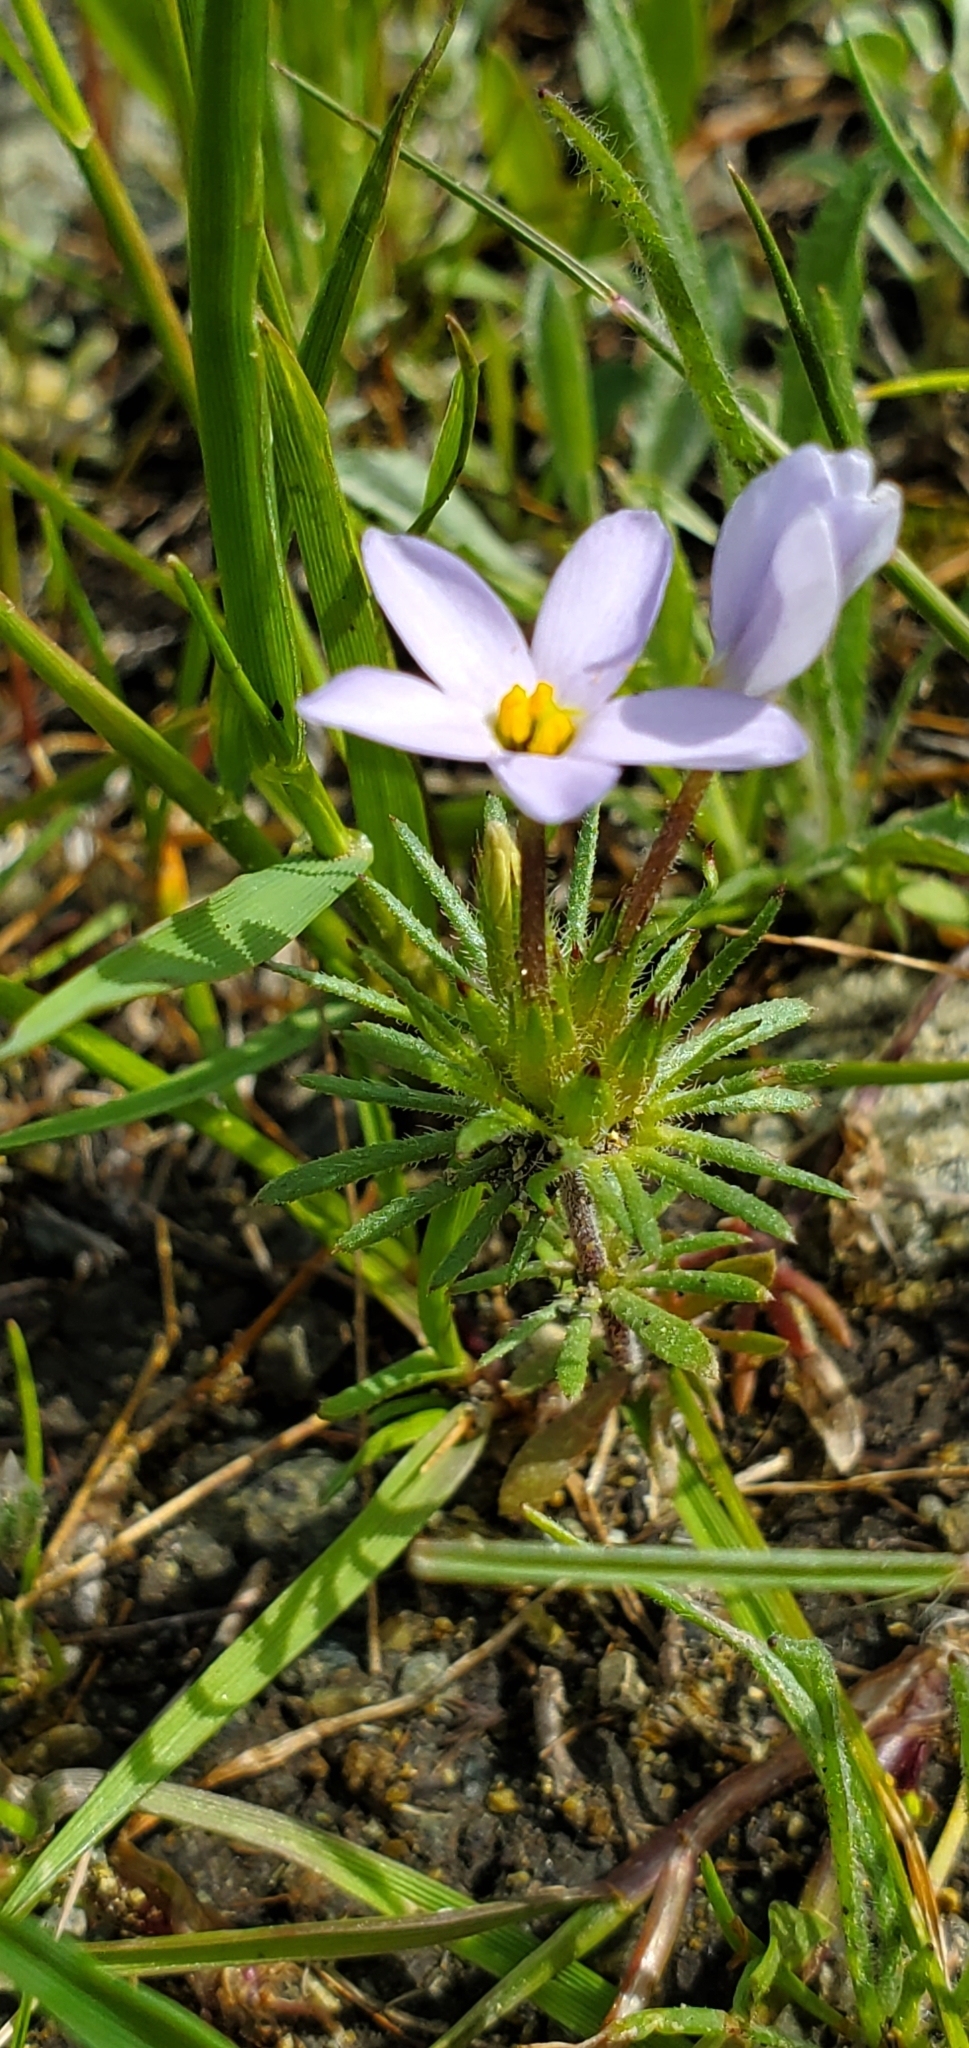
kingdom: Plantae
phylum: Tracheophyta
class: Magnoliopsida
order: Ericales
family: Polemoniaceae
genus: Leptosiphon
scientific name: Leptosiphon androsaceus
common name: False babystars
